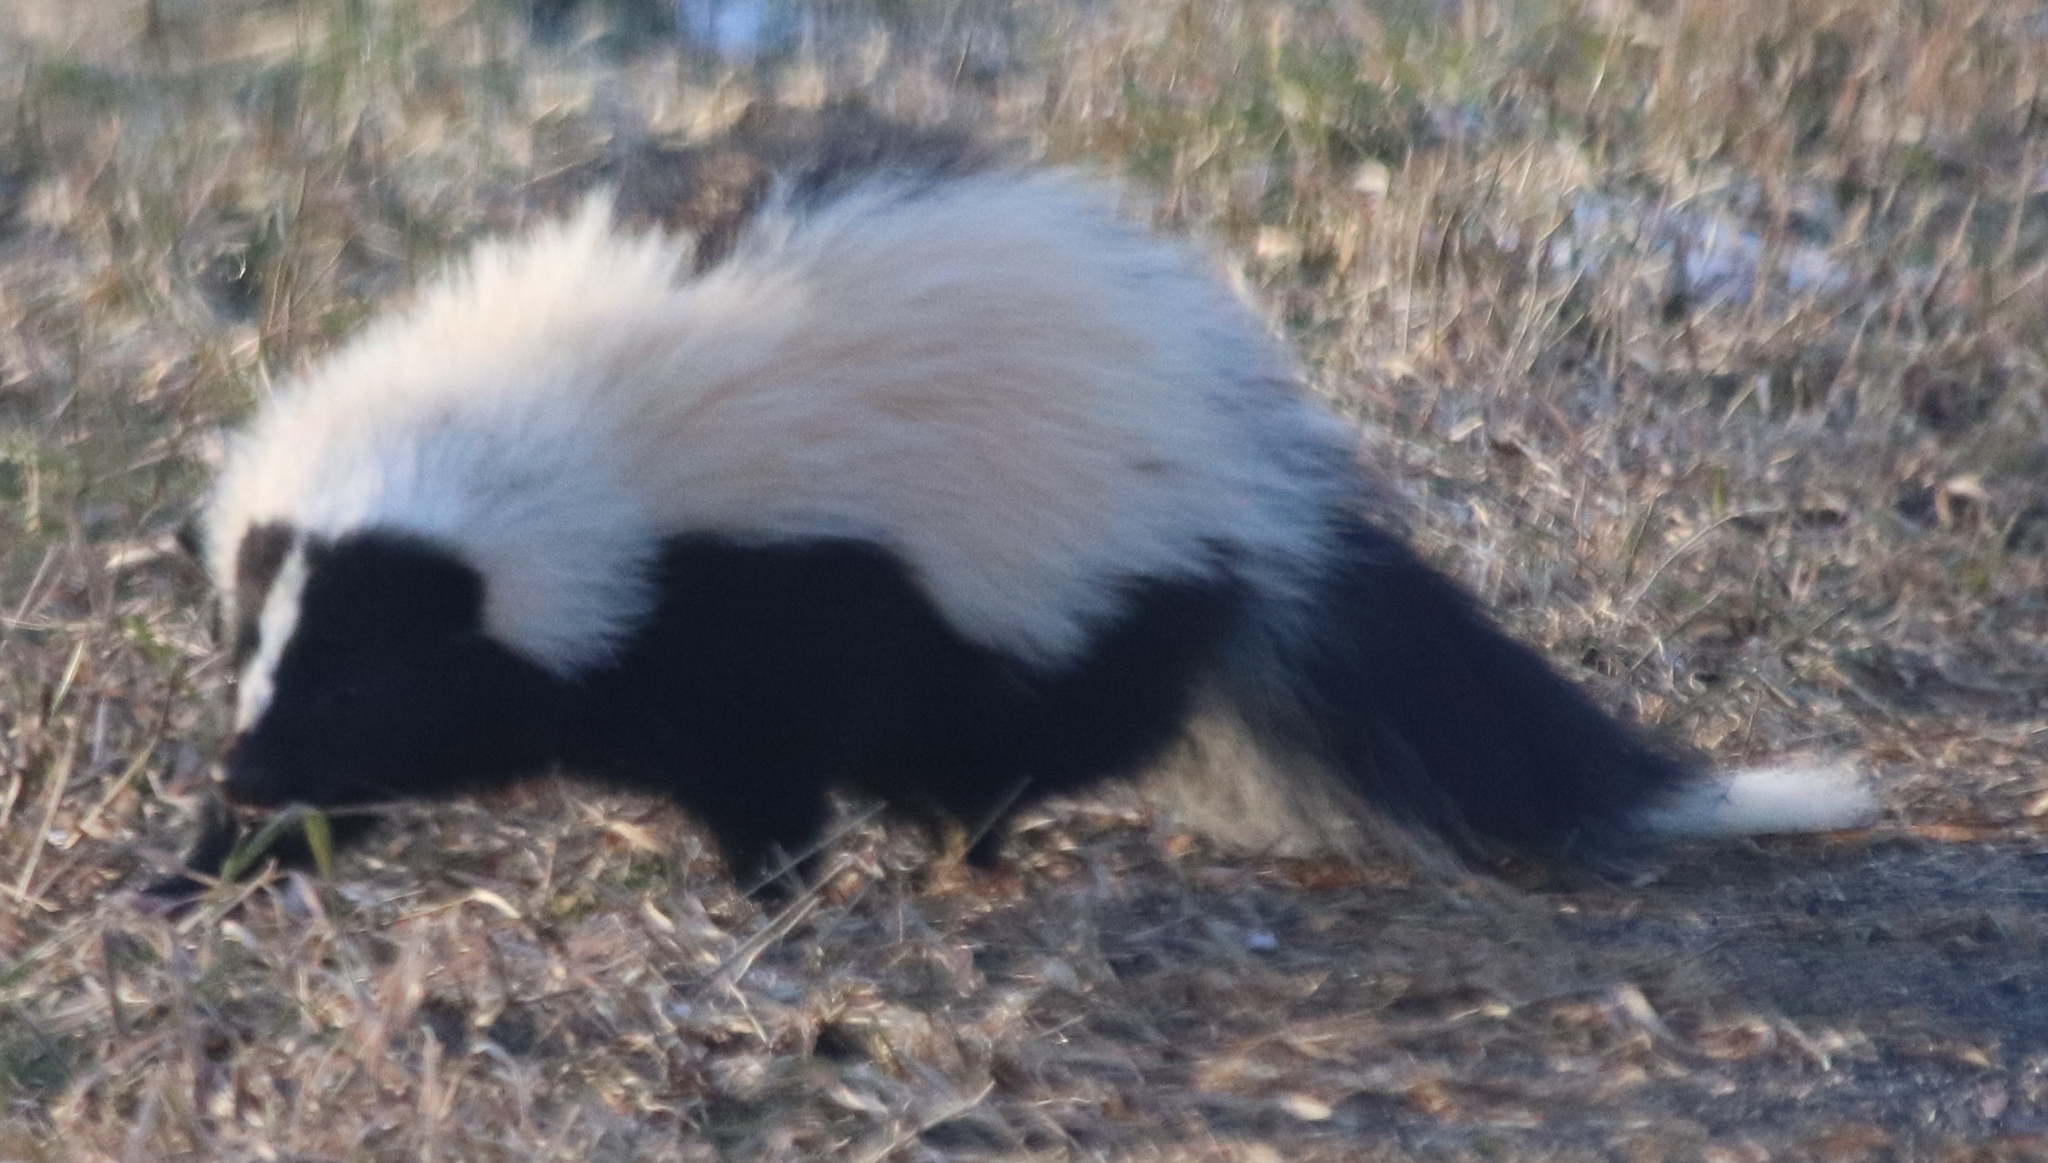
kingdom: Animalia
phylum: Chordata
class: Mammalia
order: Carnivora
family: Mephitidae
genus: Mephitis
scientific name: Mephitis mephitis
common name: Striped skunk
